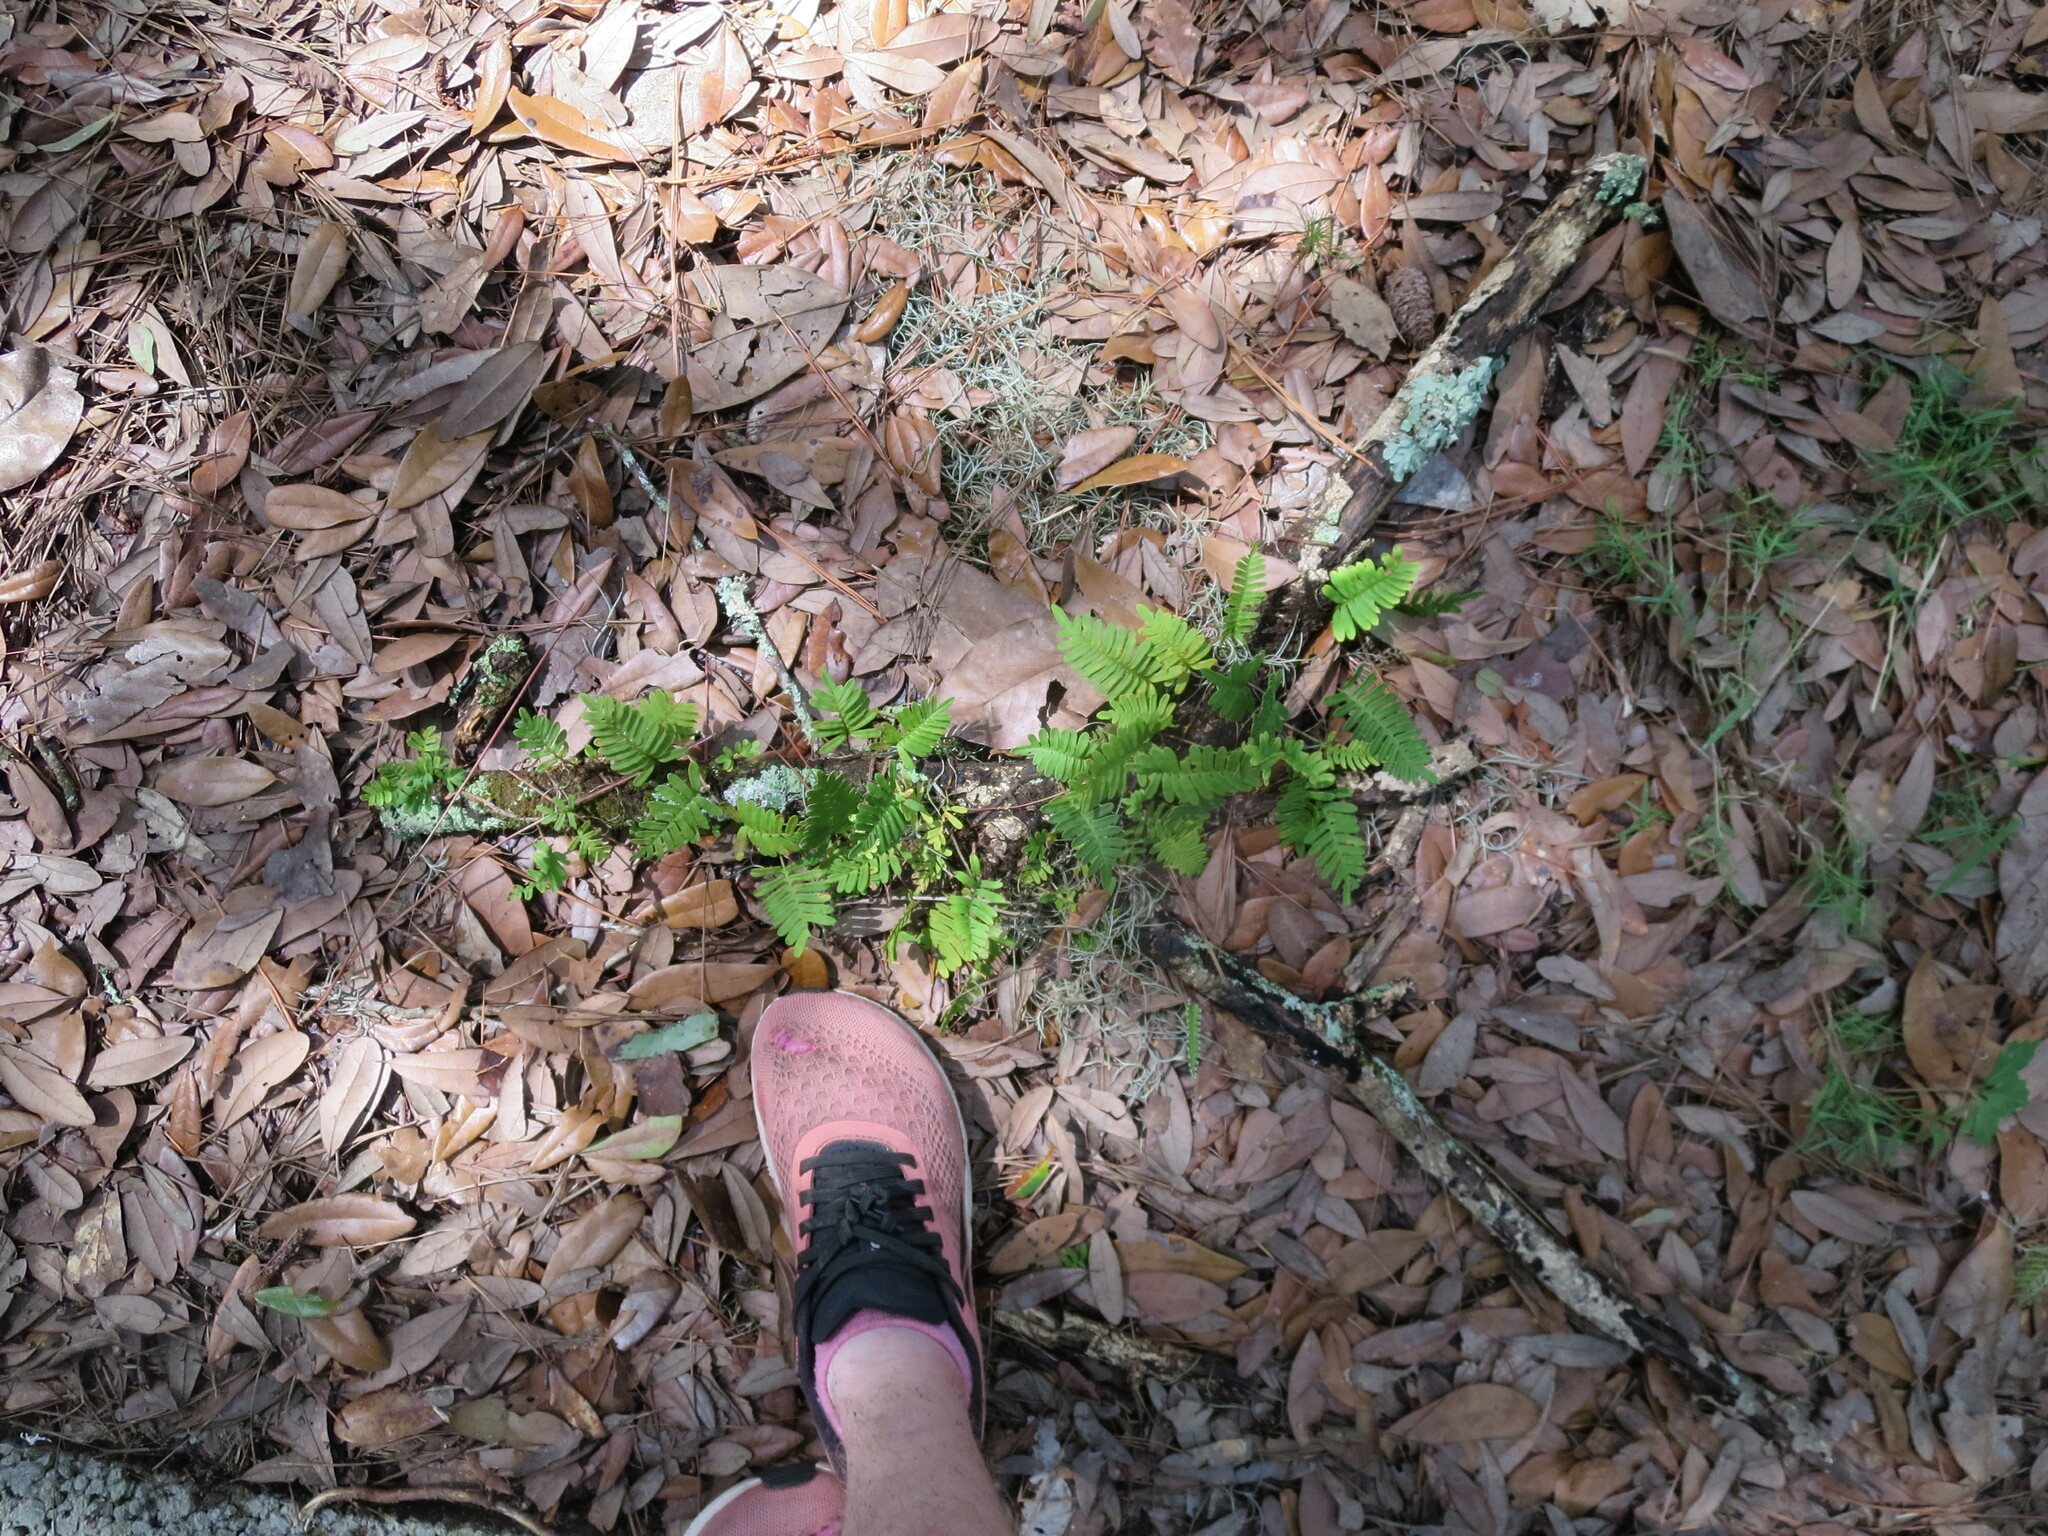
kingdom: Plantae
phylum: Tracheophyta
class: Polypodiopsida
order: Polypodiales
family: Polypodiaceae
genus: Pleopeltis
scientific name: Pleopeltis michauxiana
